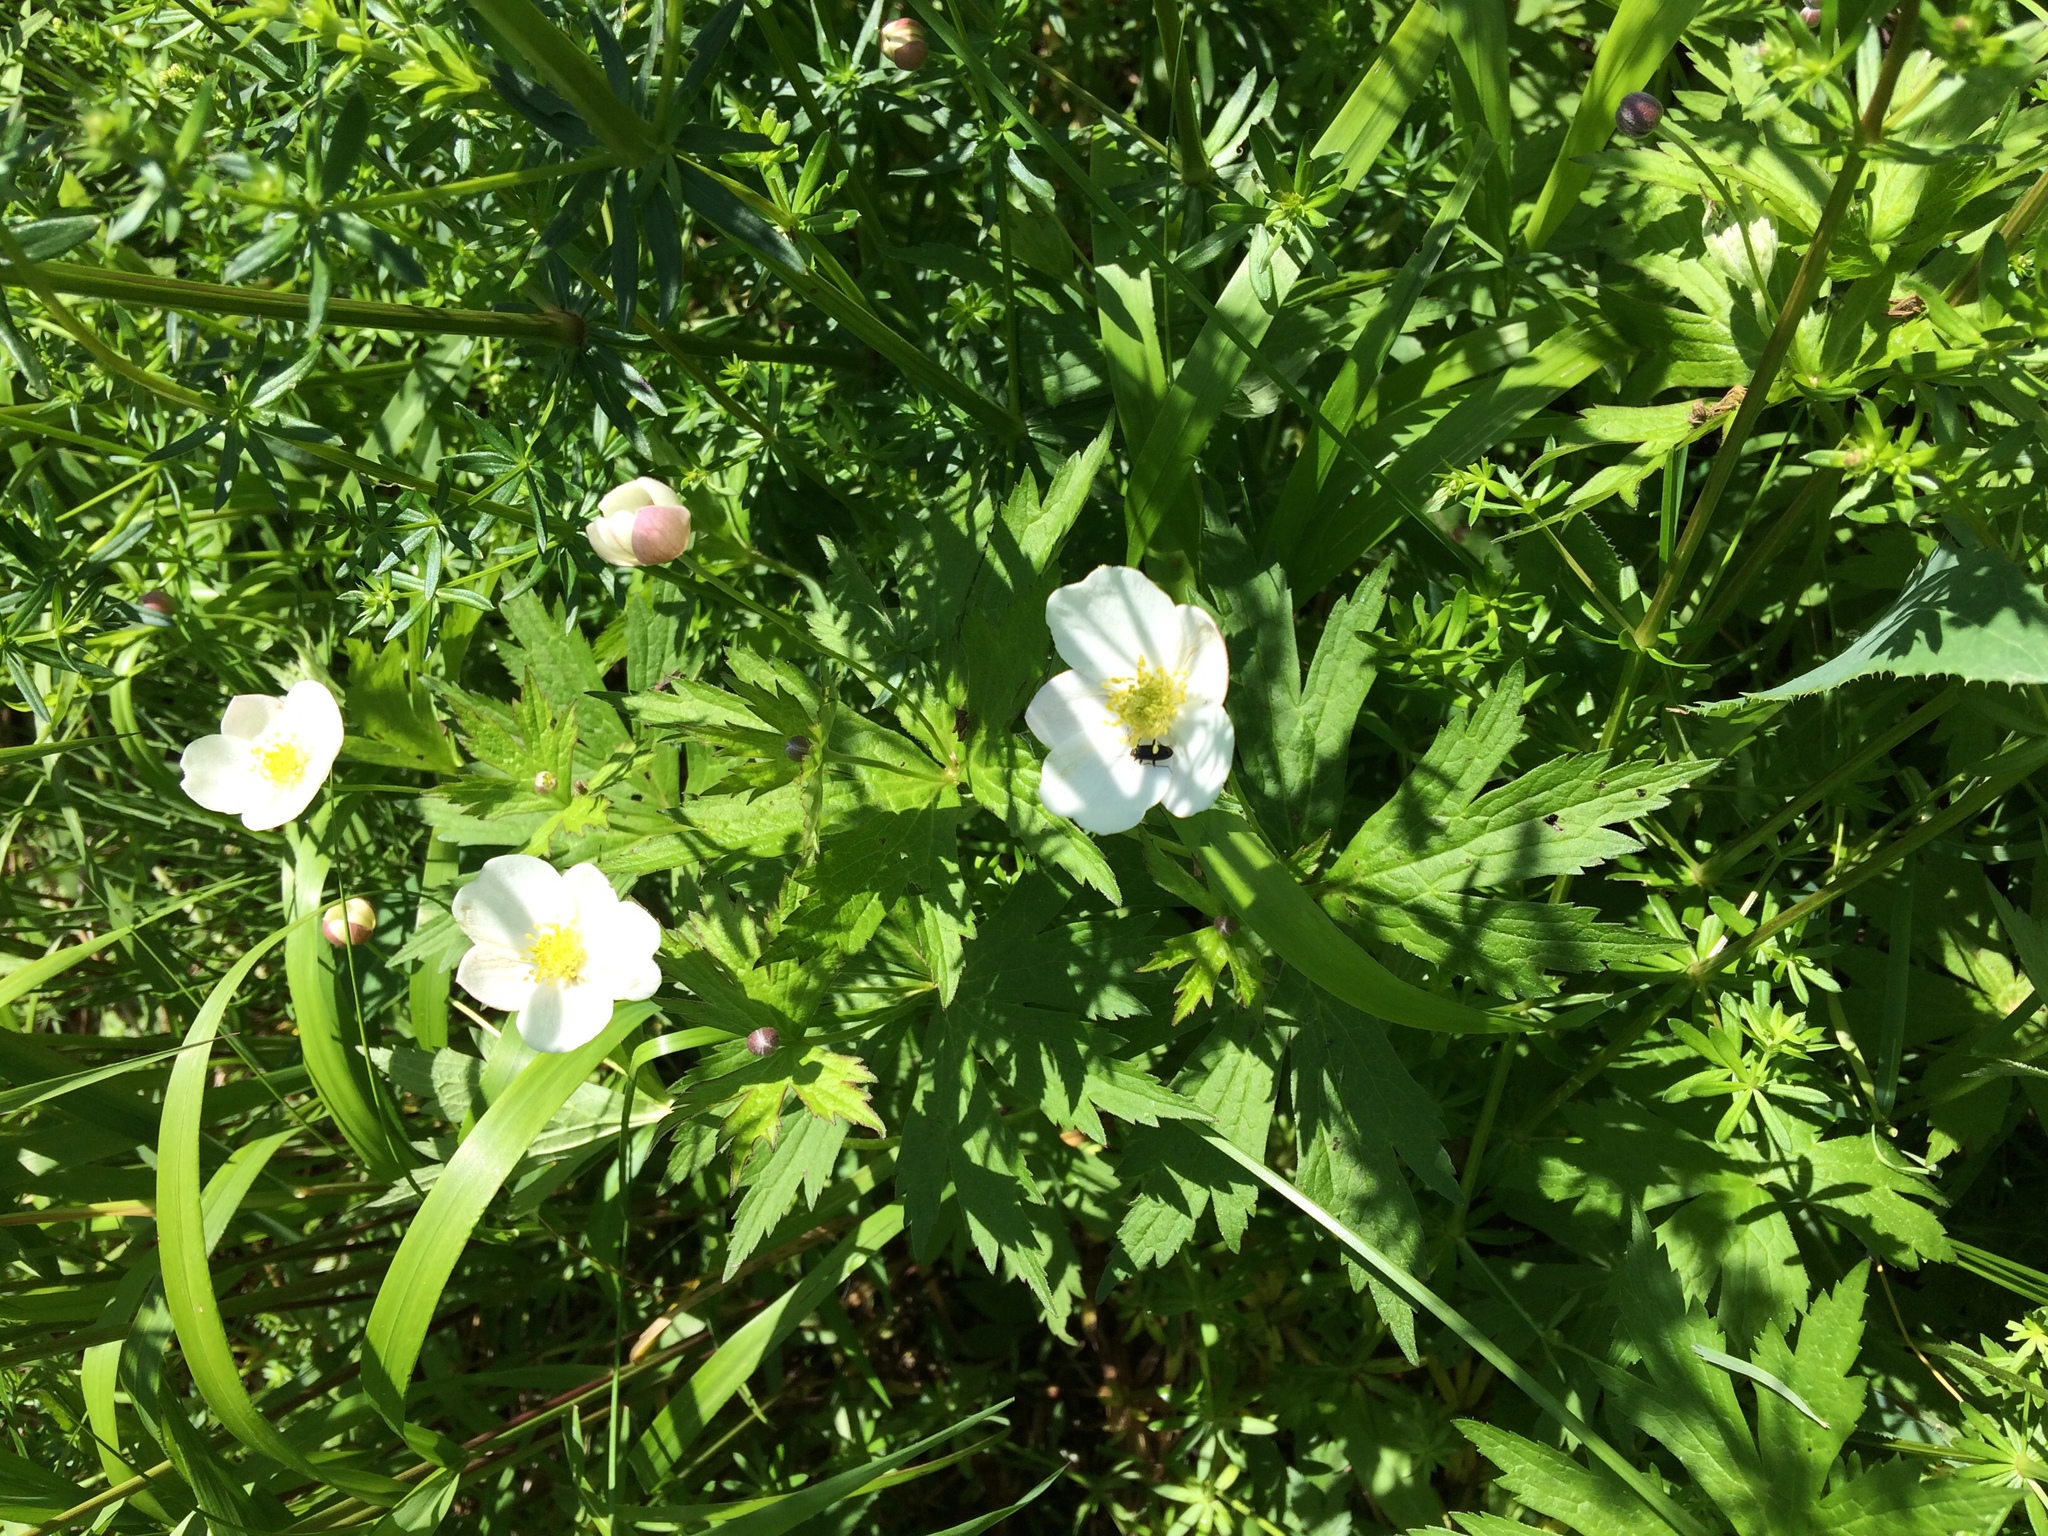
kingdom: Plantae
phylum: Tracheophyta
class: Magnoliopsida
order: Ranunculales
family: Ranunculaceae
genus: Anemonastrum
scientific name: Anemonastrum canadense
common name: Canada anemone
